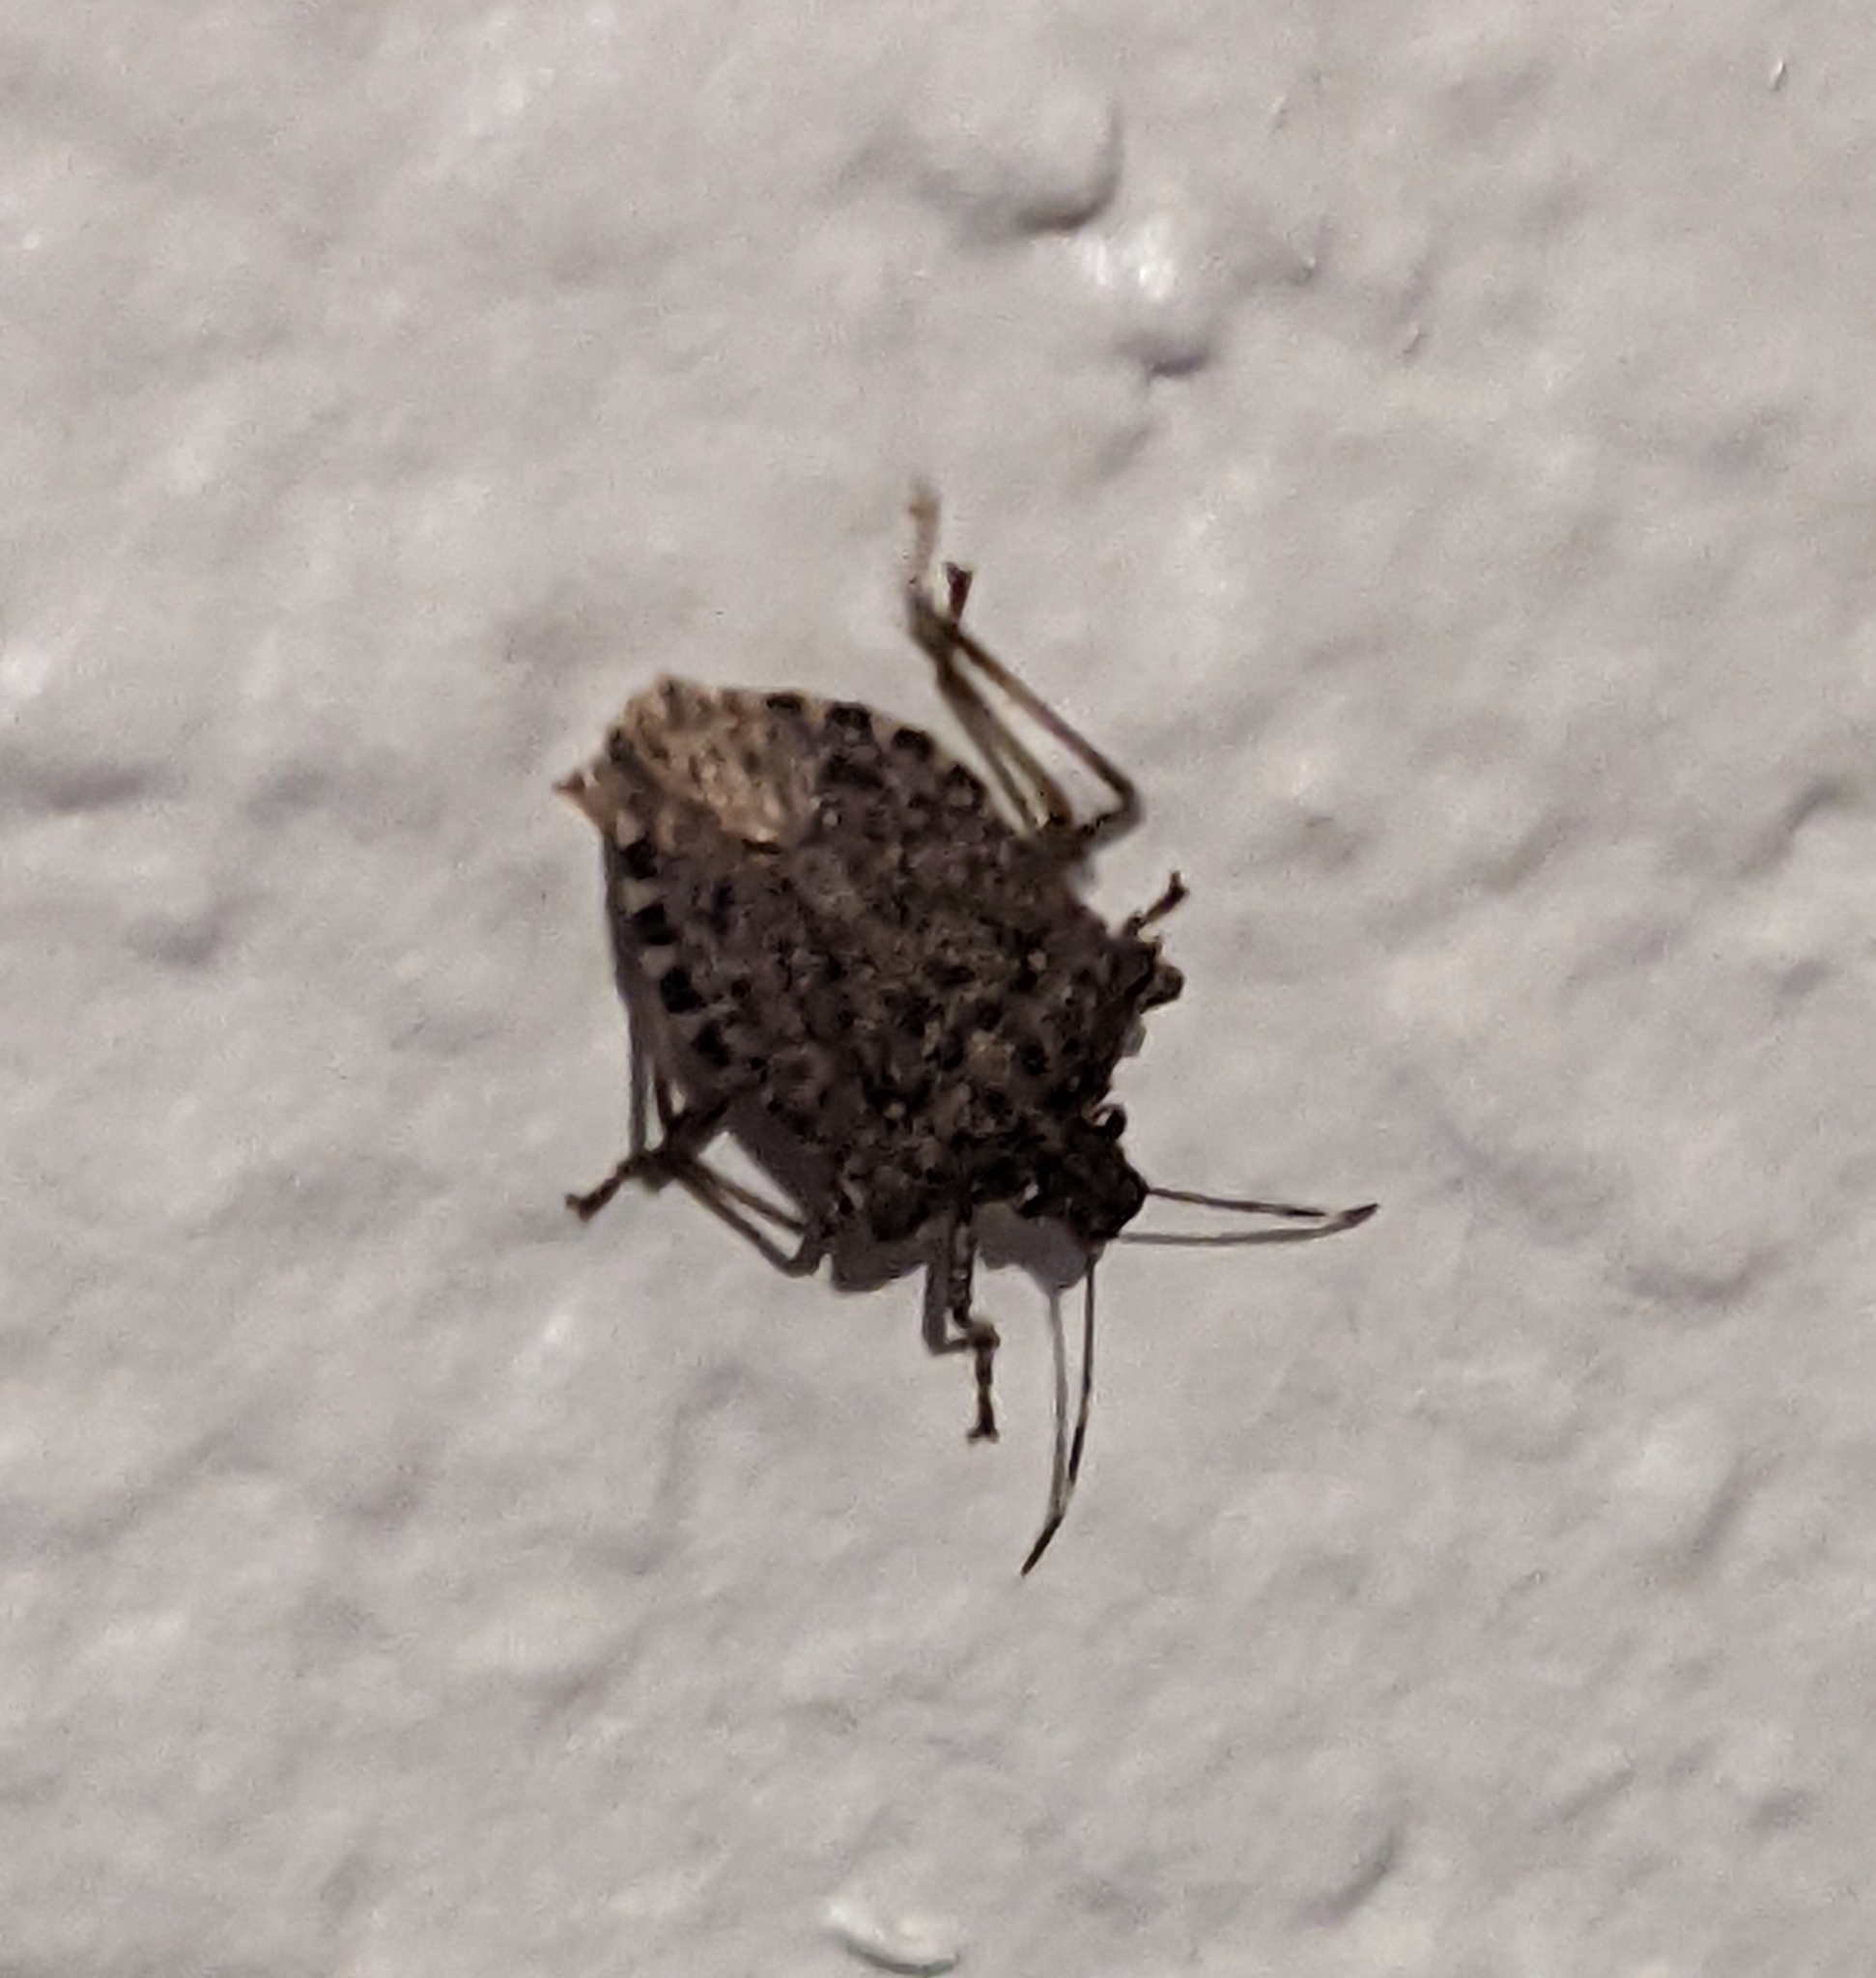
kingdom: Animalia
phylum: Arthropoda
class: Insecta
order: Hemiptera
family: Pentatomidae
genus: Halyomorpha
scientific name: Halyomorpha halys
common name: Brown marmorated stink bug
